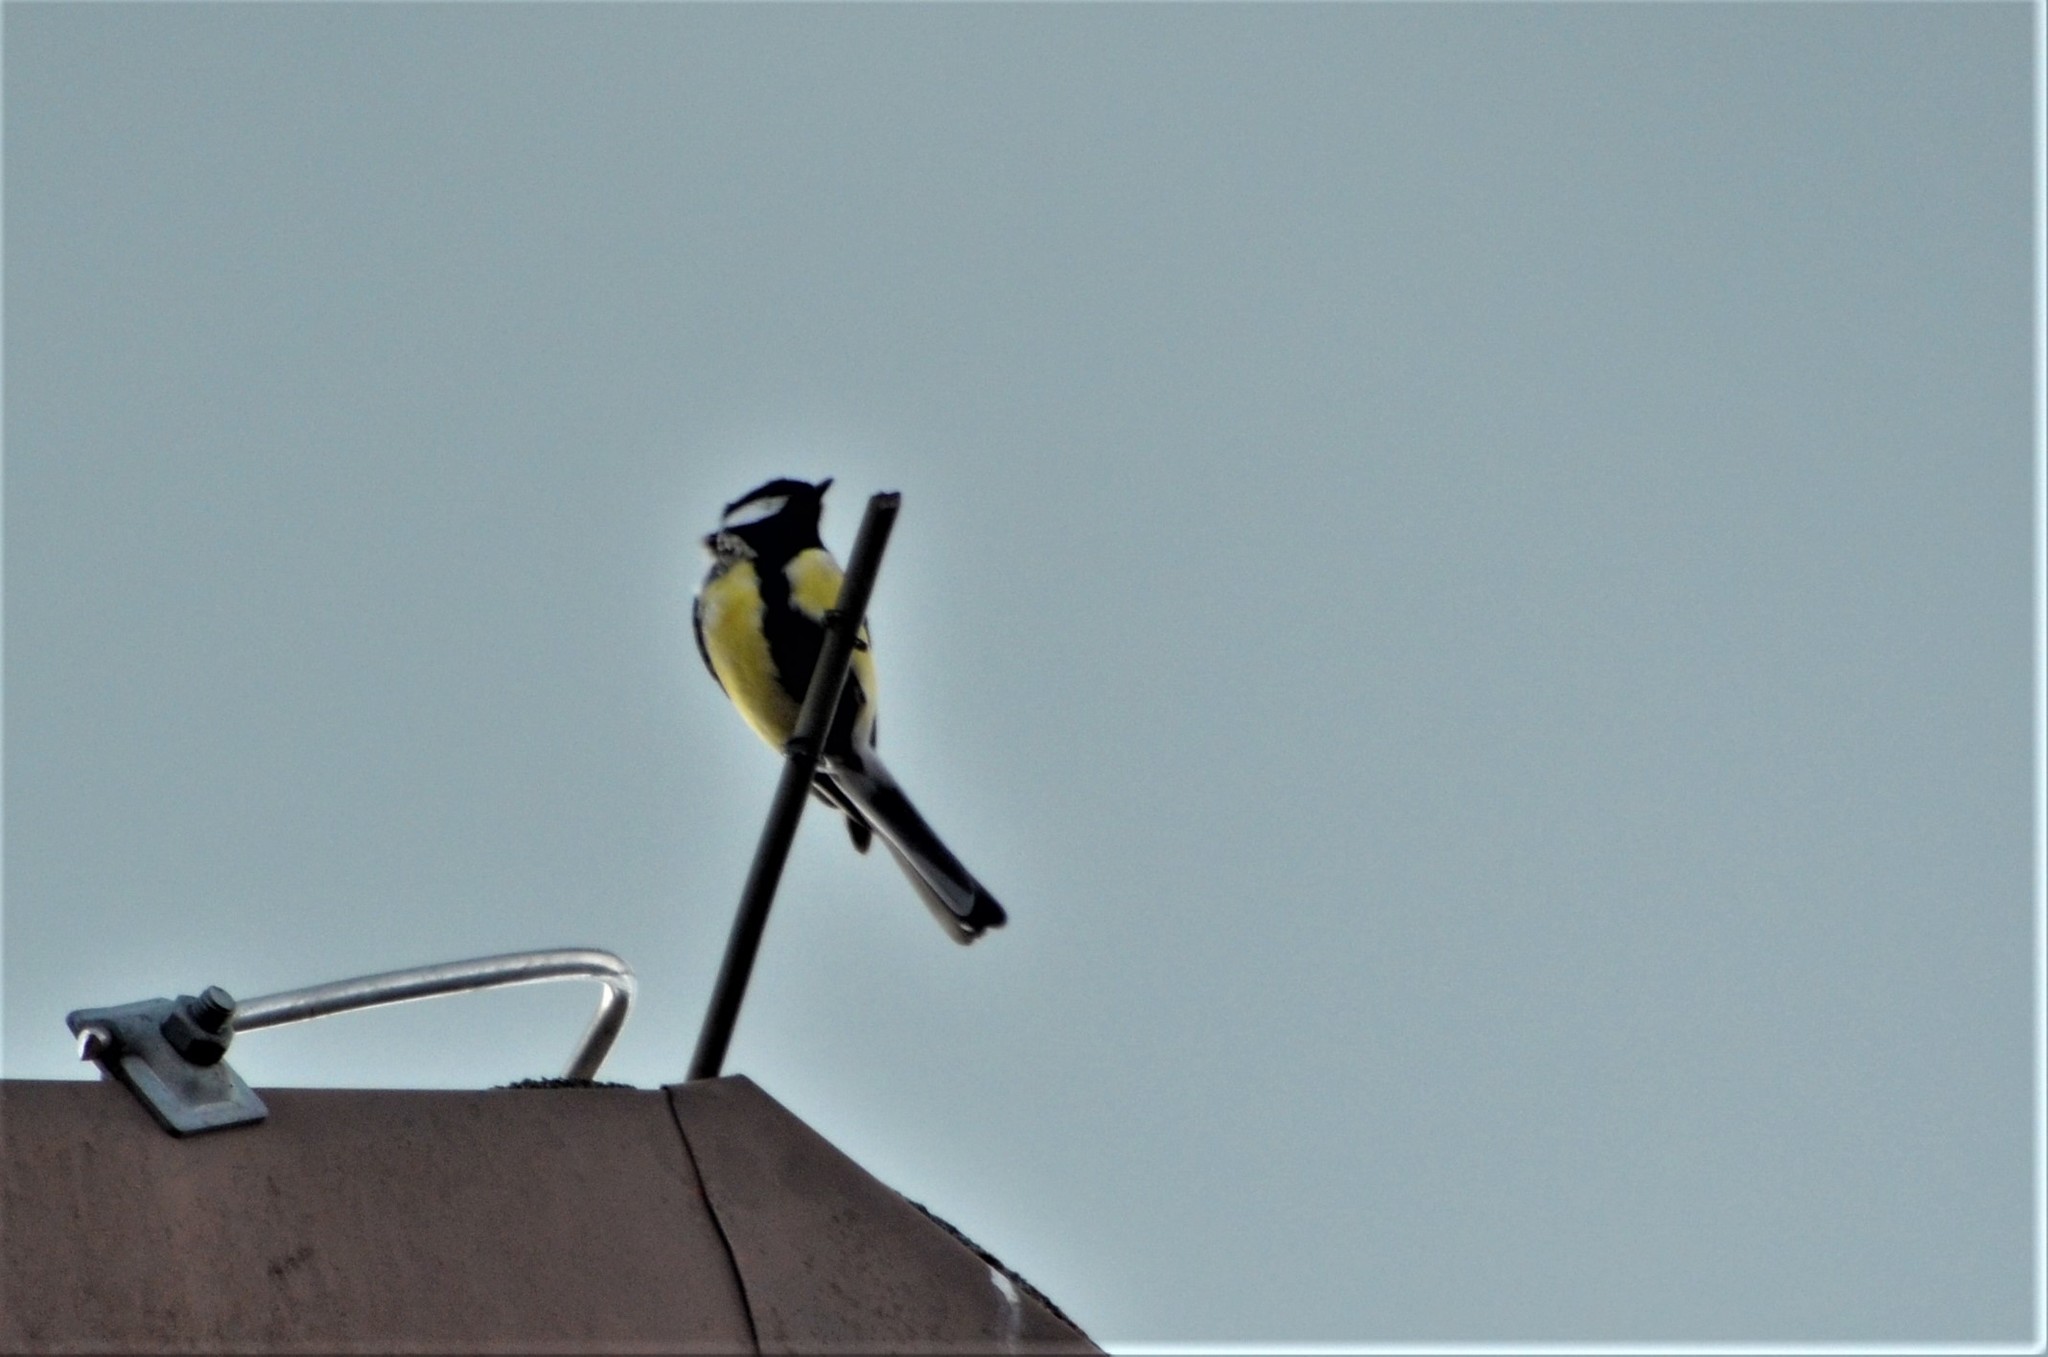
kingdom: Animalia
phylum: Chordata
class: Aves
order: Passeriformes
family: Paridae
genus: Parus
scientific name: Parus major
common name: Great tit
